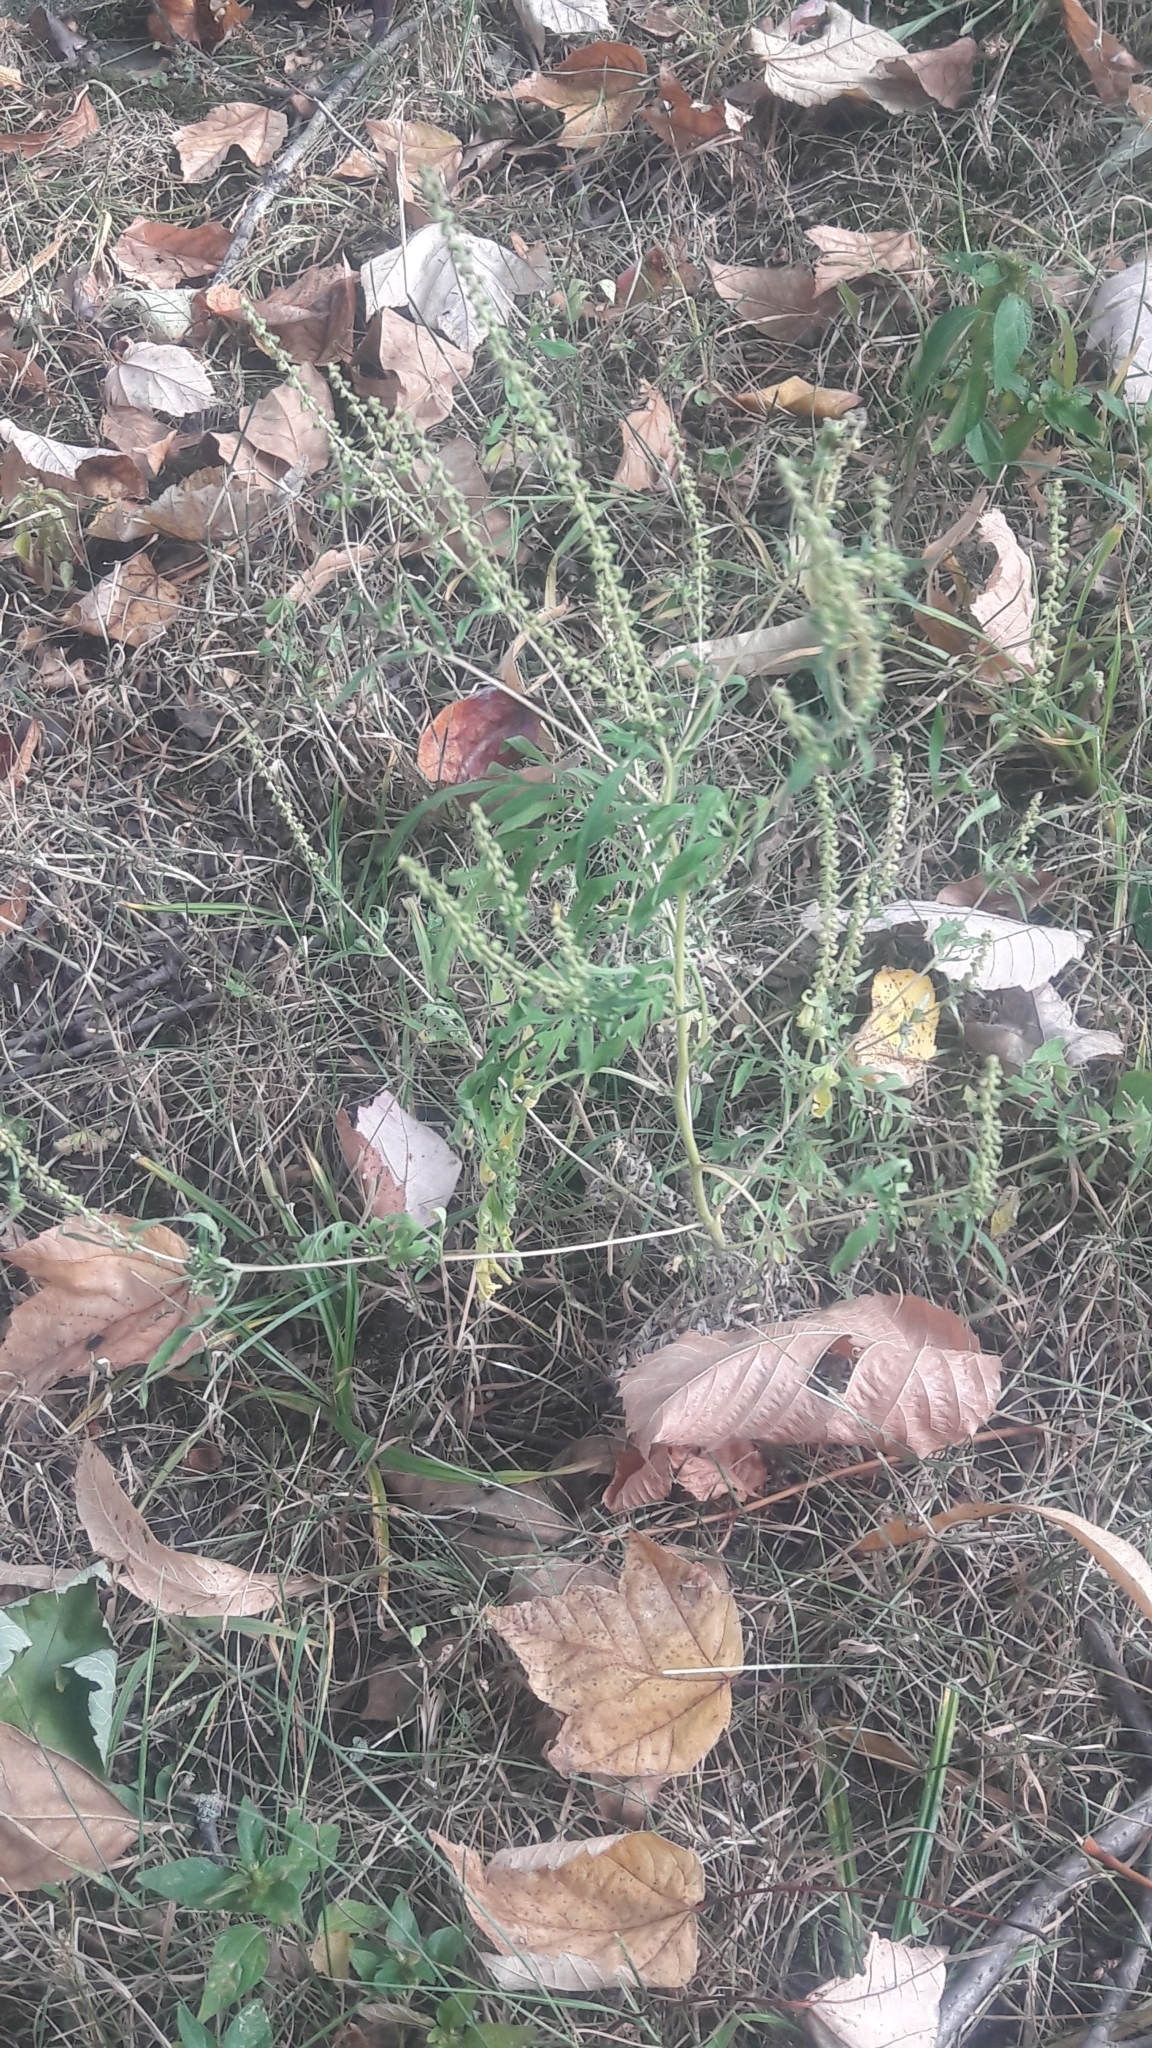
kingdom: Plantae
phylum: Tracheophyta
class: Magnoliopsida
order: Asterales
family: Asteraceae
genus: Ambrosia
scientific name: Ambrosia artemisiifolia
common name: Annual ragweed
